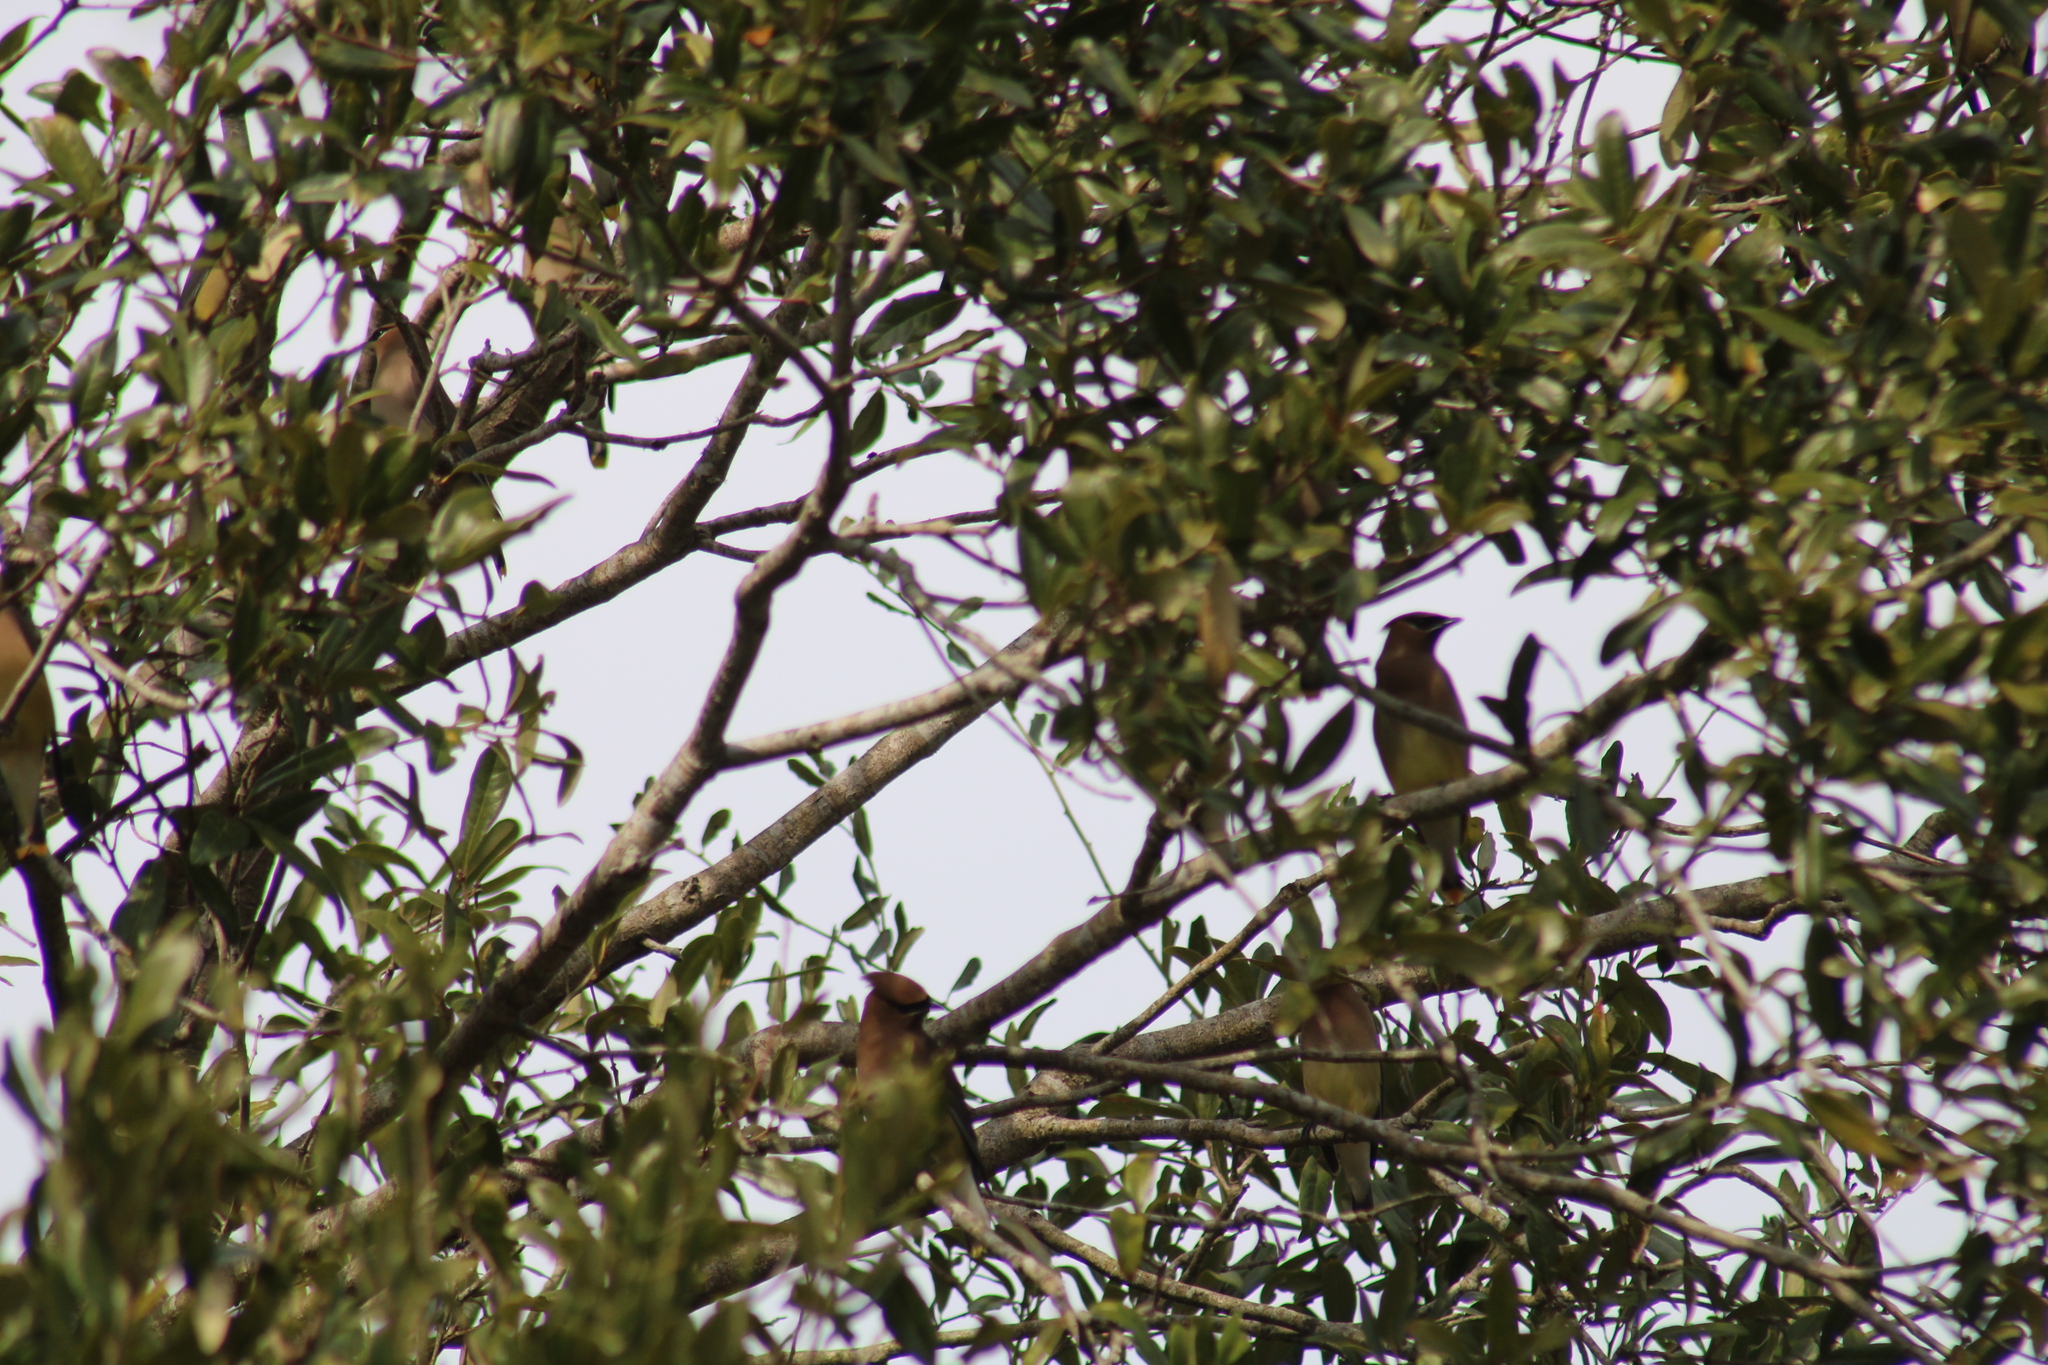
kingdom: Animalia
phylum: Chordata
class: Aves
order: Passeriformes
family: Bombycillidae
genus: Bombycilla
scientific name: Bombycilla cedrorum
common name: Cedar waxwing
